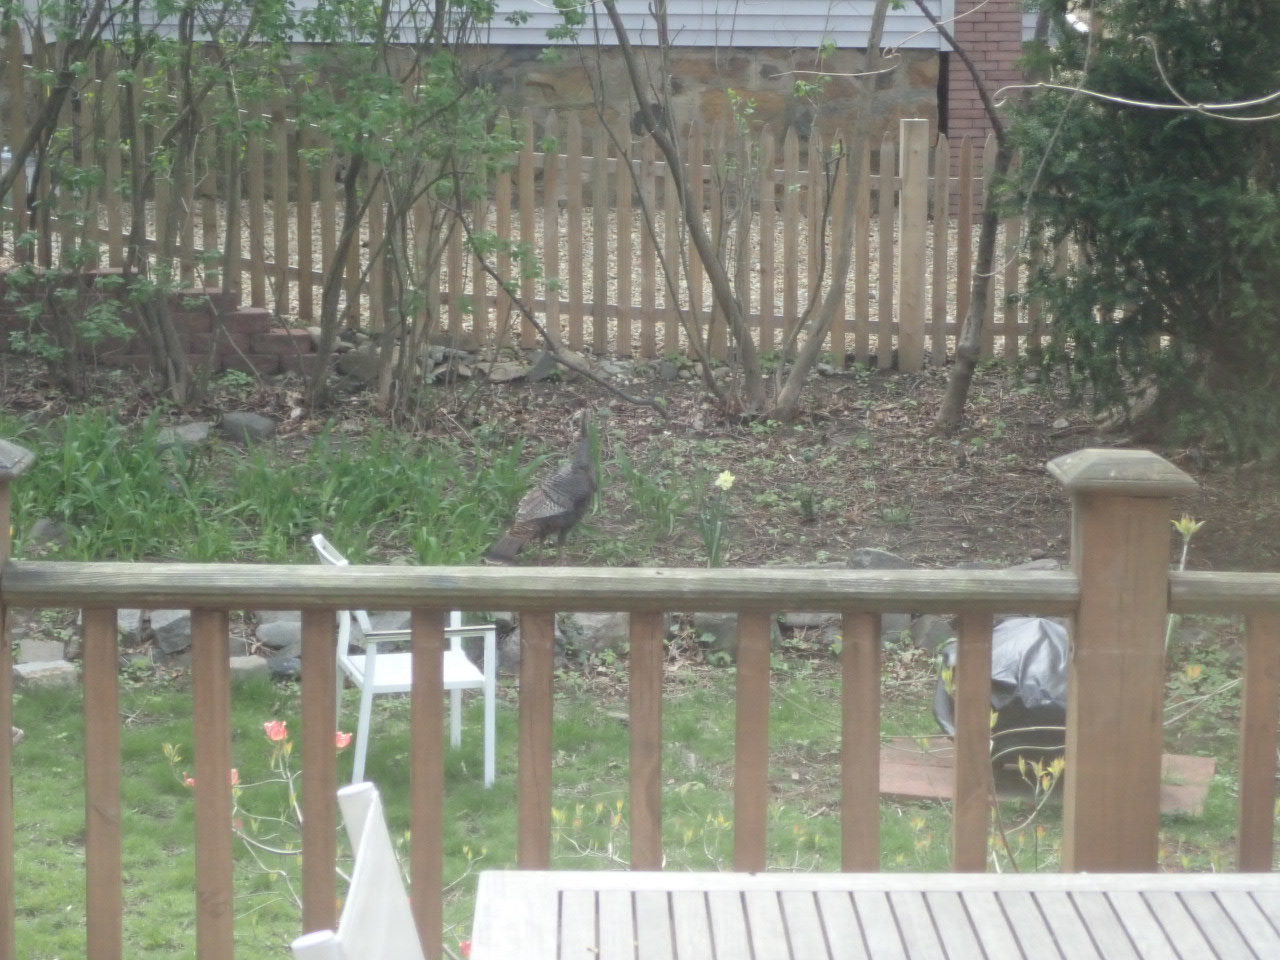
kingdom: Animalia
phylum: Chordata
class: Aves
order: Galliformes
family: Phasianidae
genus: Meleagris
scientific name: Meleagris gallopavo
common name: Wild turkey
